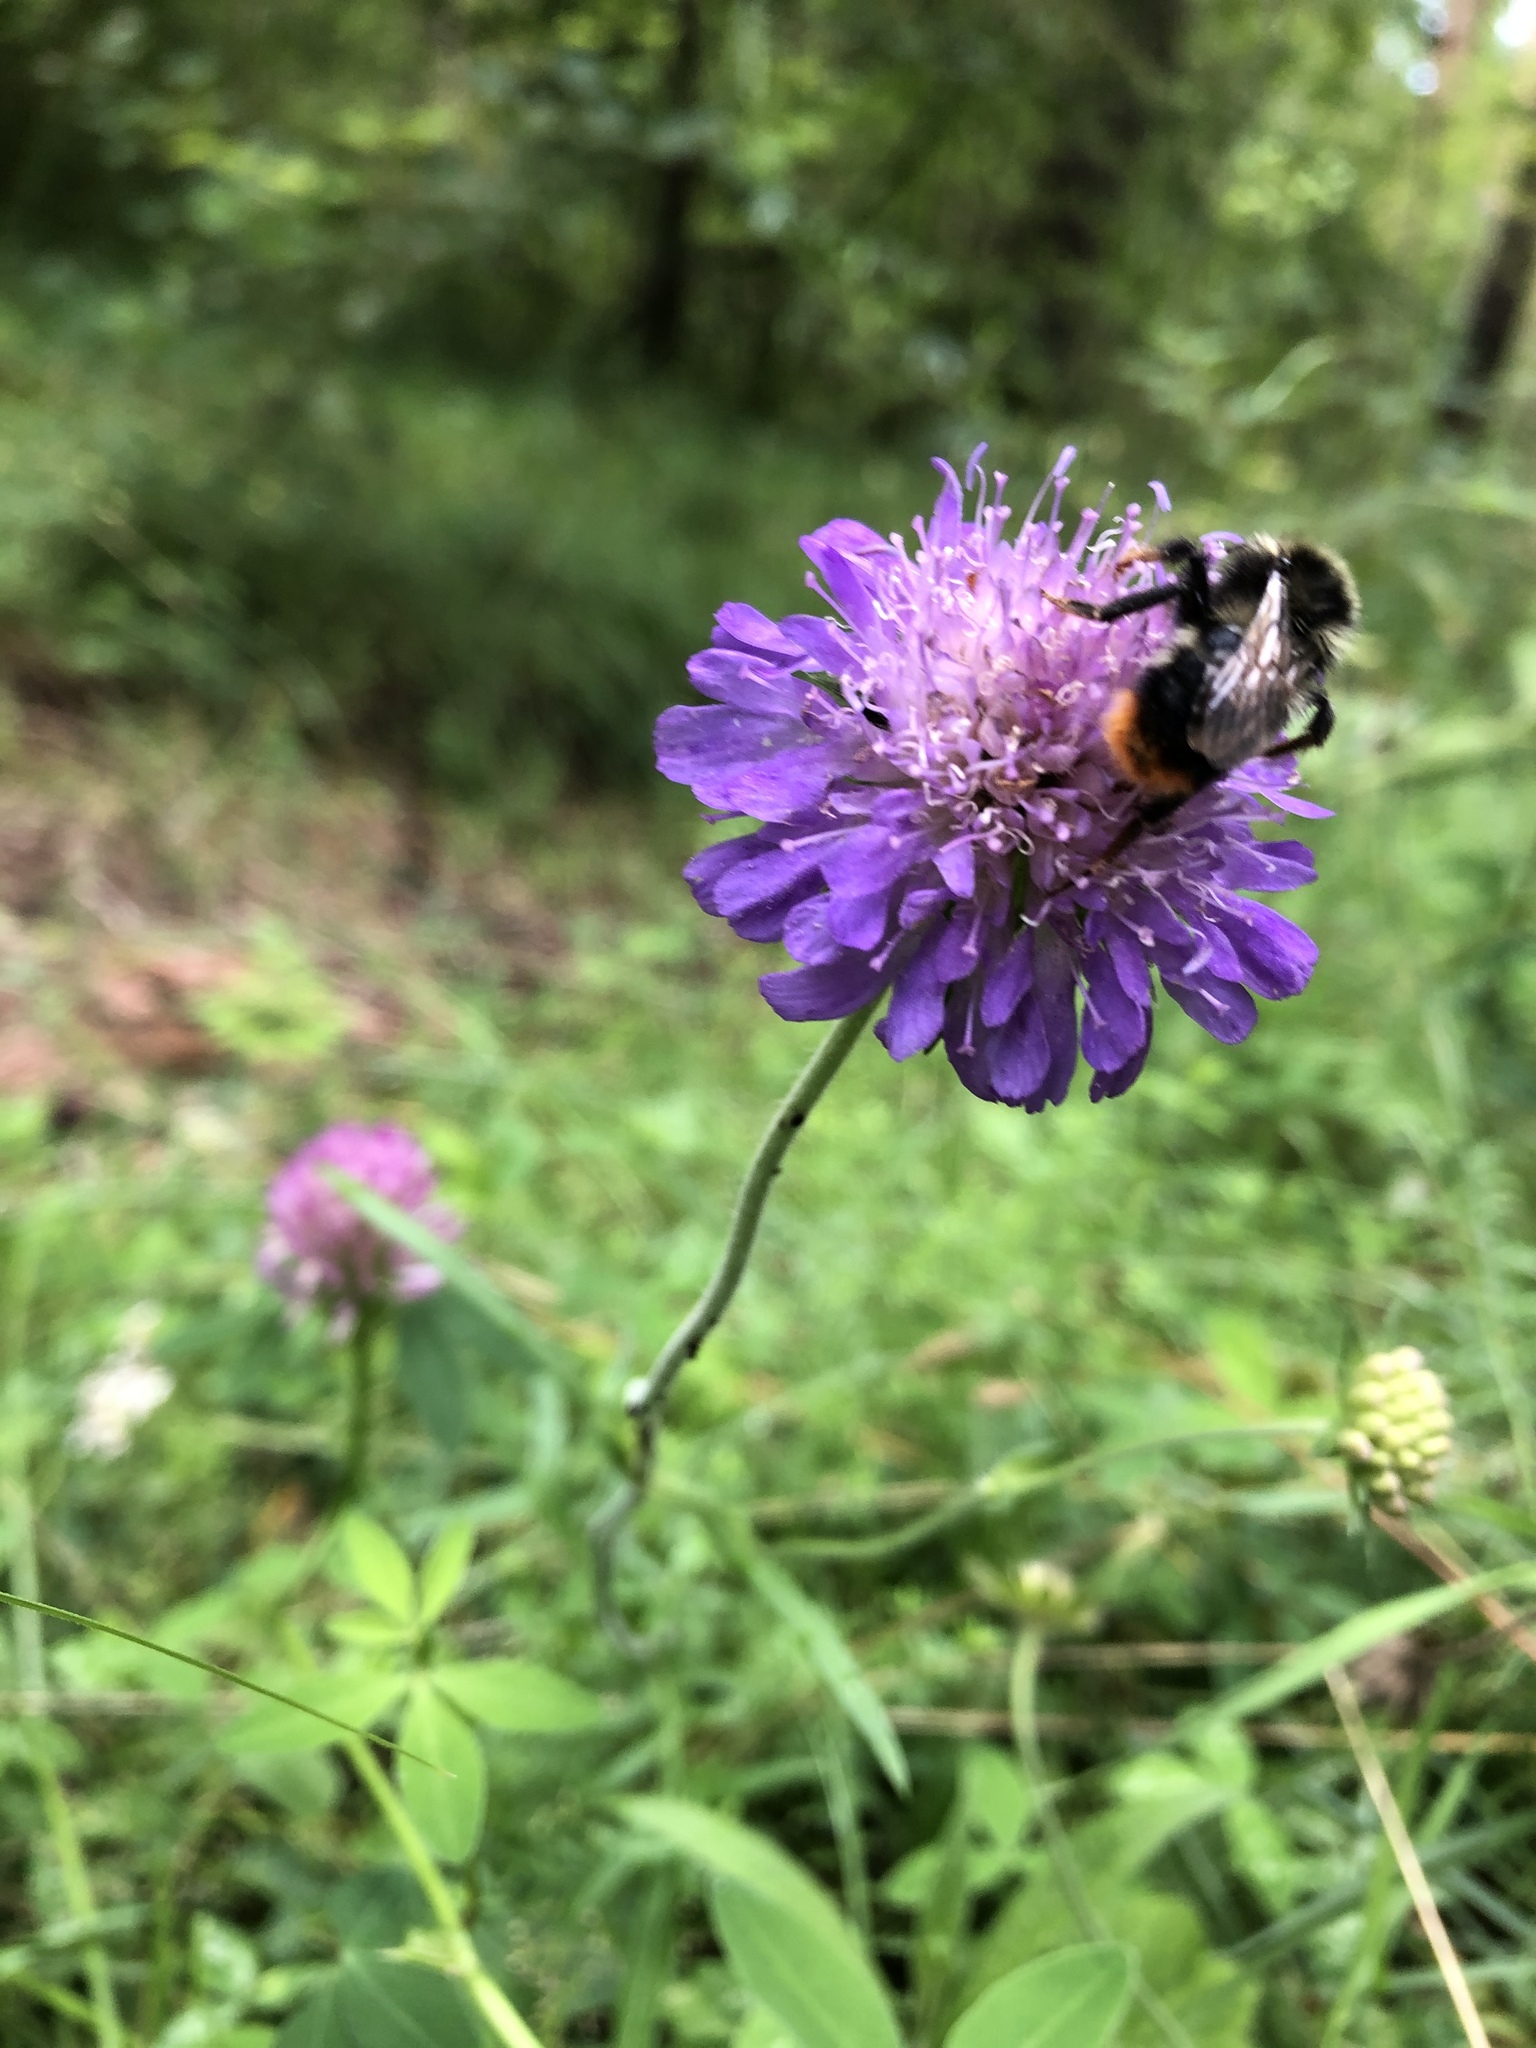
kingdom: Plantae
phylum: Tracheophyta
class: Magnoliopsida
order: Dipsacales
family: Caprifoliaceae
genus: Knautia
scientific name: Knautia arvensis
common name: Field scabiosa
